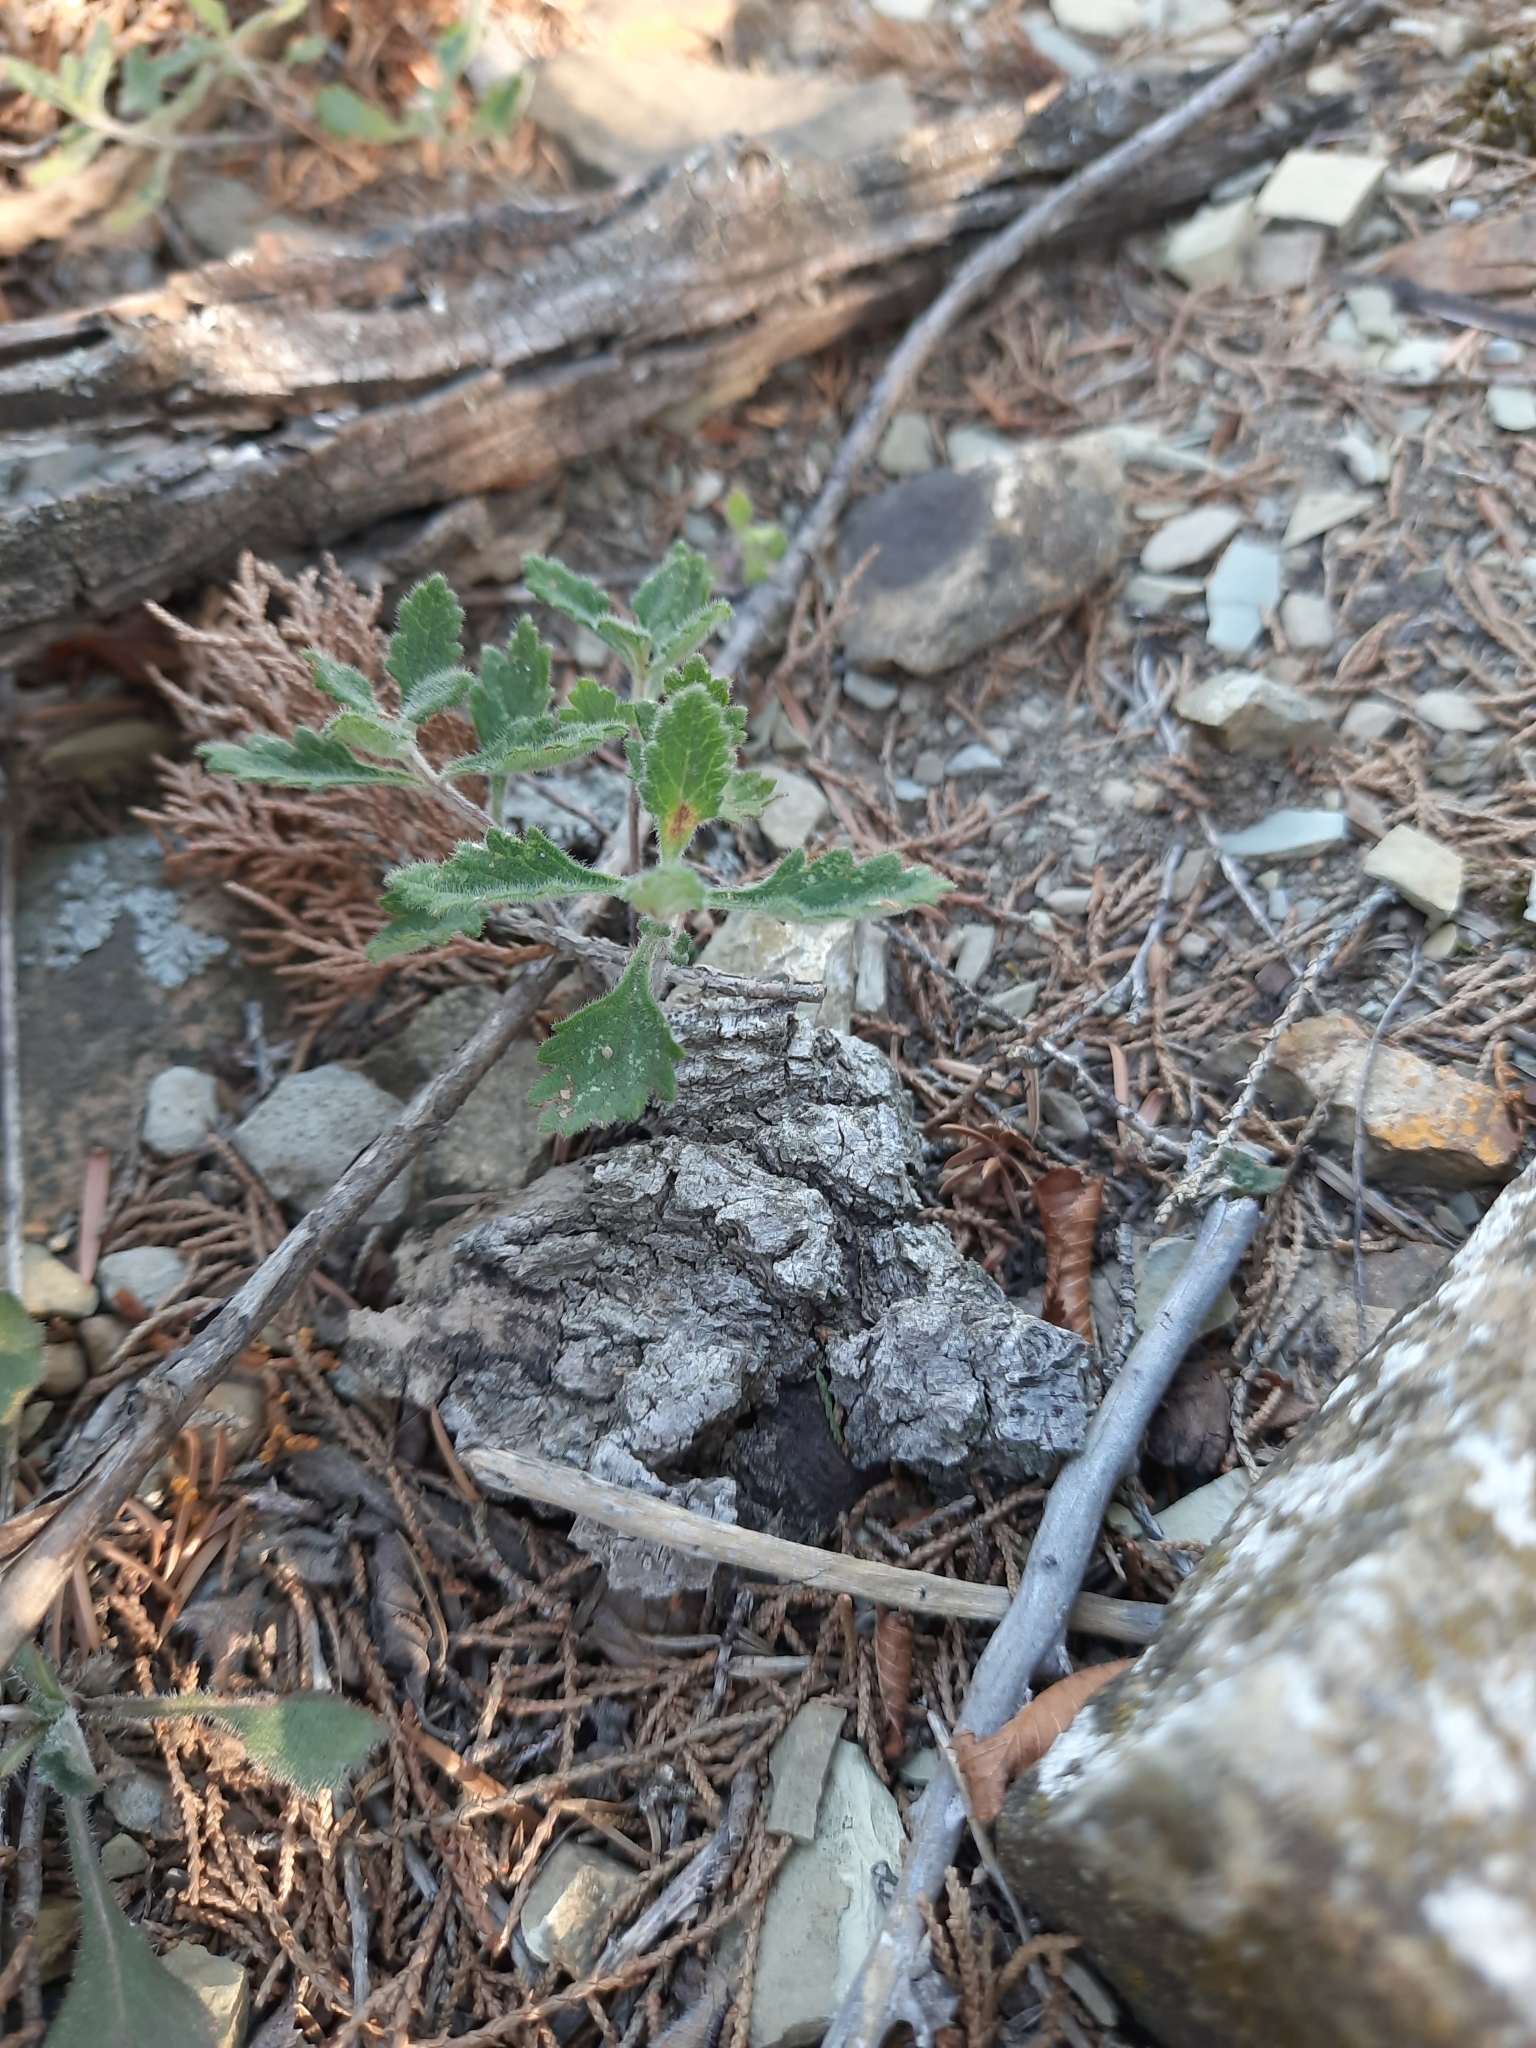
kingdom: Plantae
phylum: Tracheophyta
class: Magnoliopsida
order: Lamiales
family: Lamiaceae
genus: Teucrium
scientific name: Teucrium chamaedrys
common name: Wall germander
